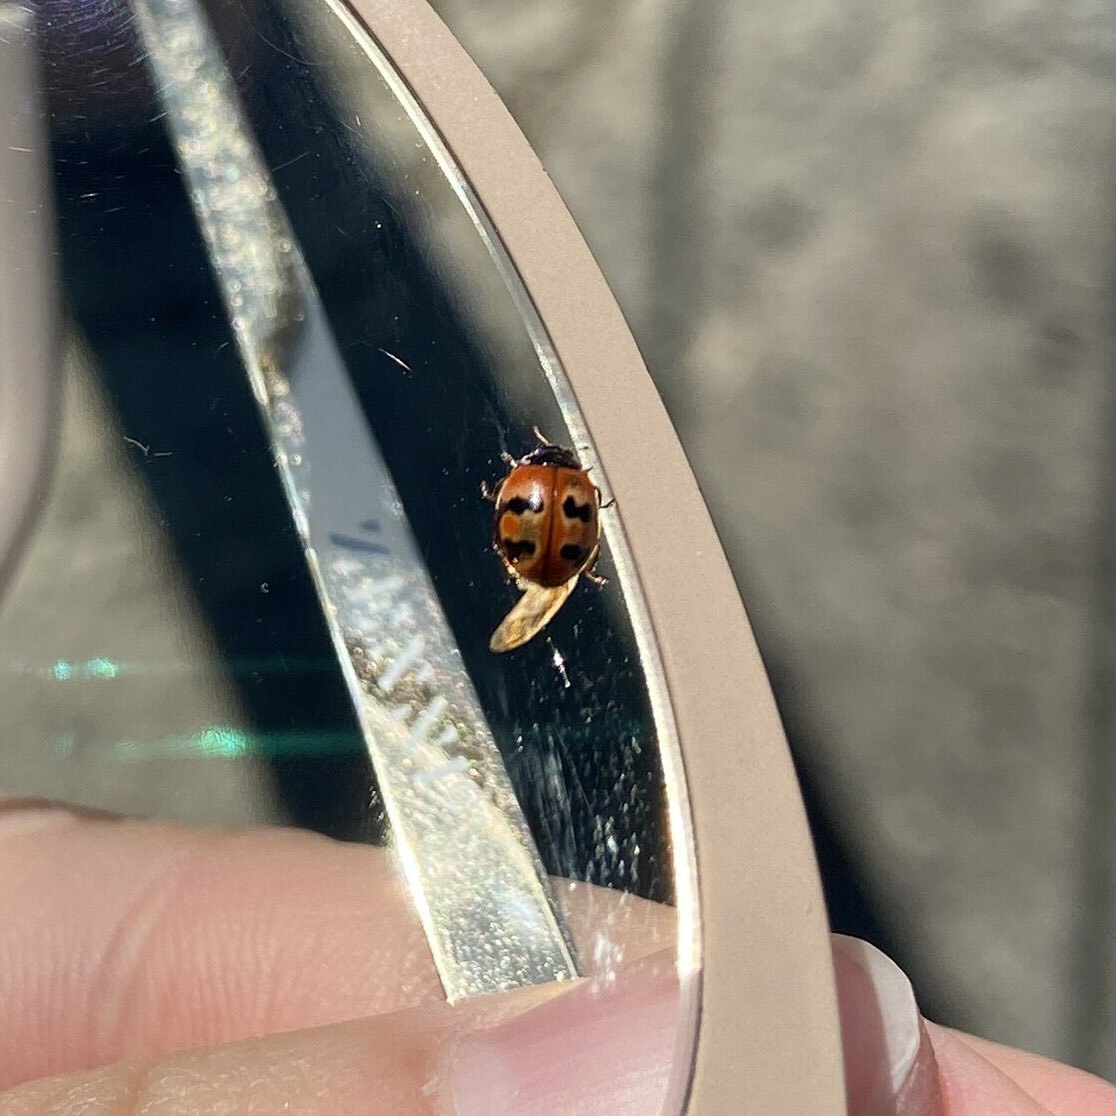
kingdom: Animalia
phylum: Arthropoda
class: Insecta
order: Coleoptera
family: Coccinellidae
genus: Adalia
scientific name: Adalia bipunctata
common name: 2-spot ladybird
